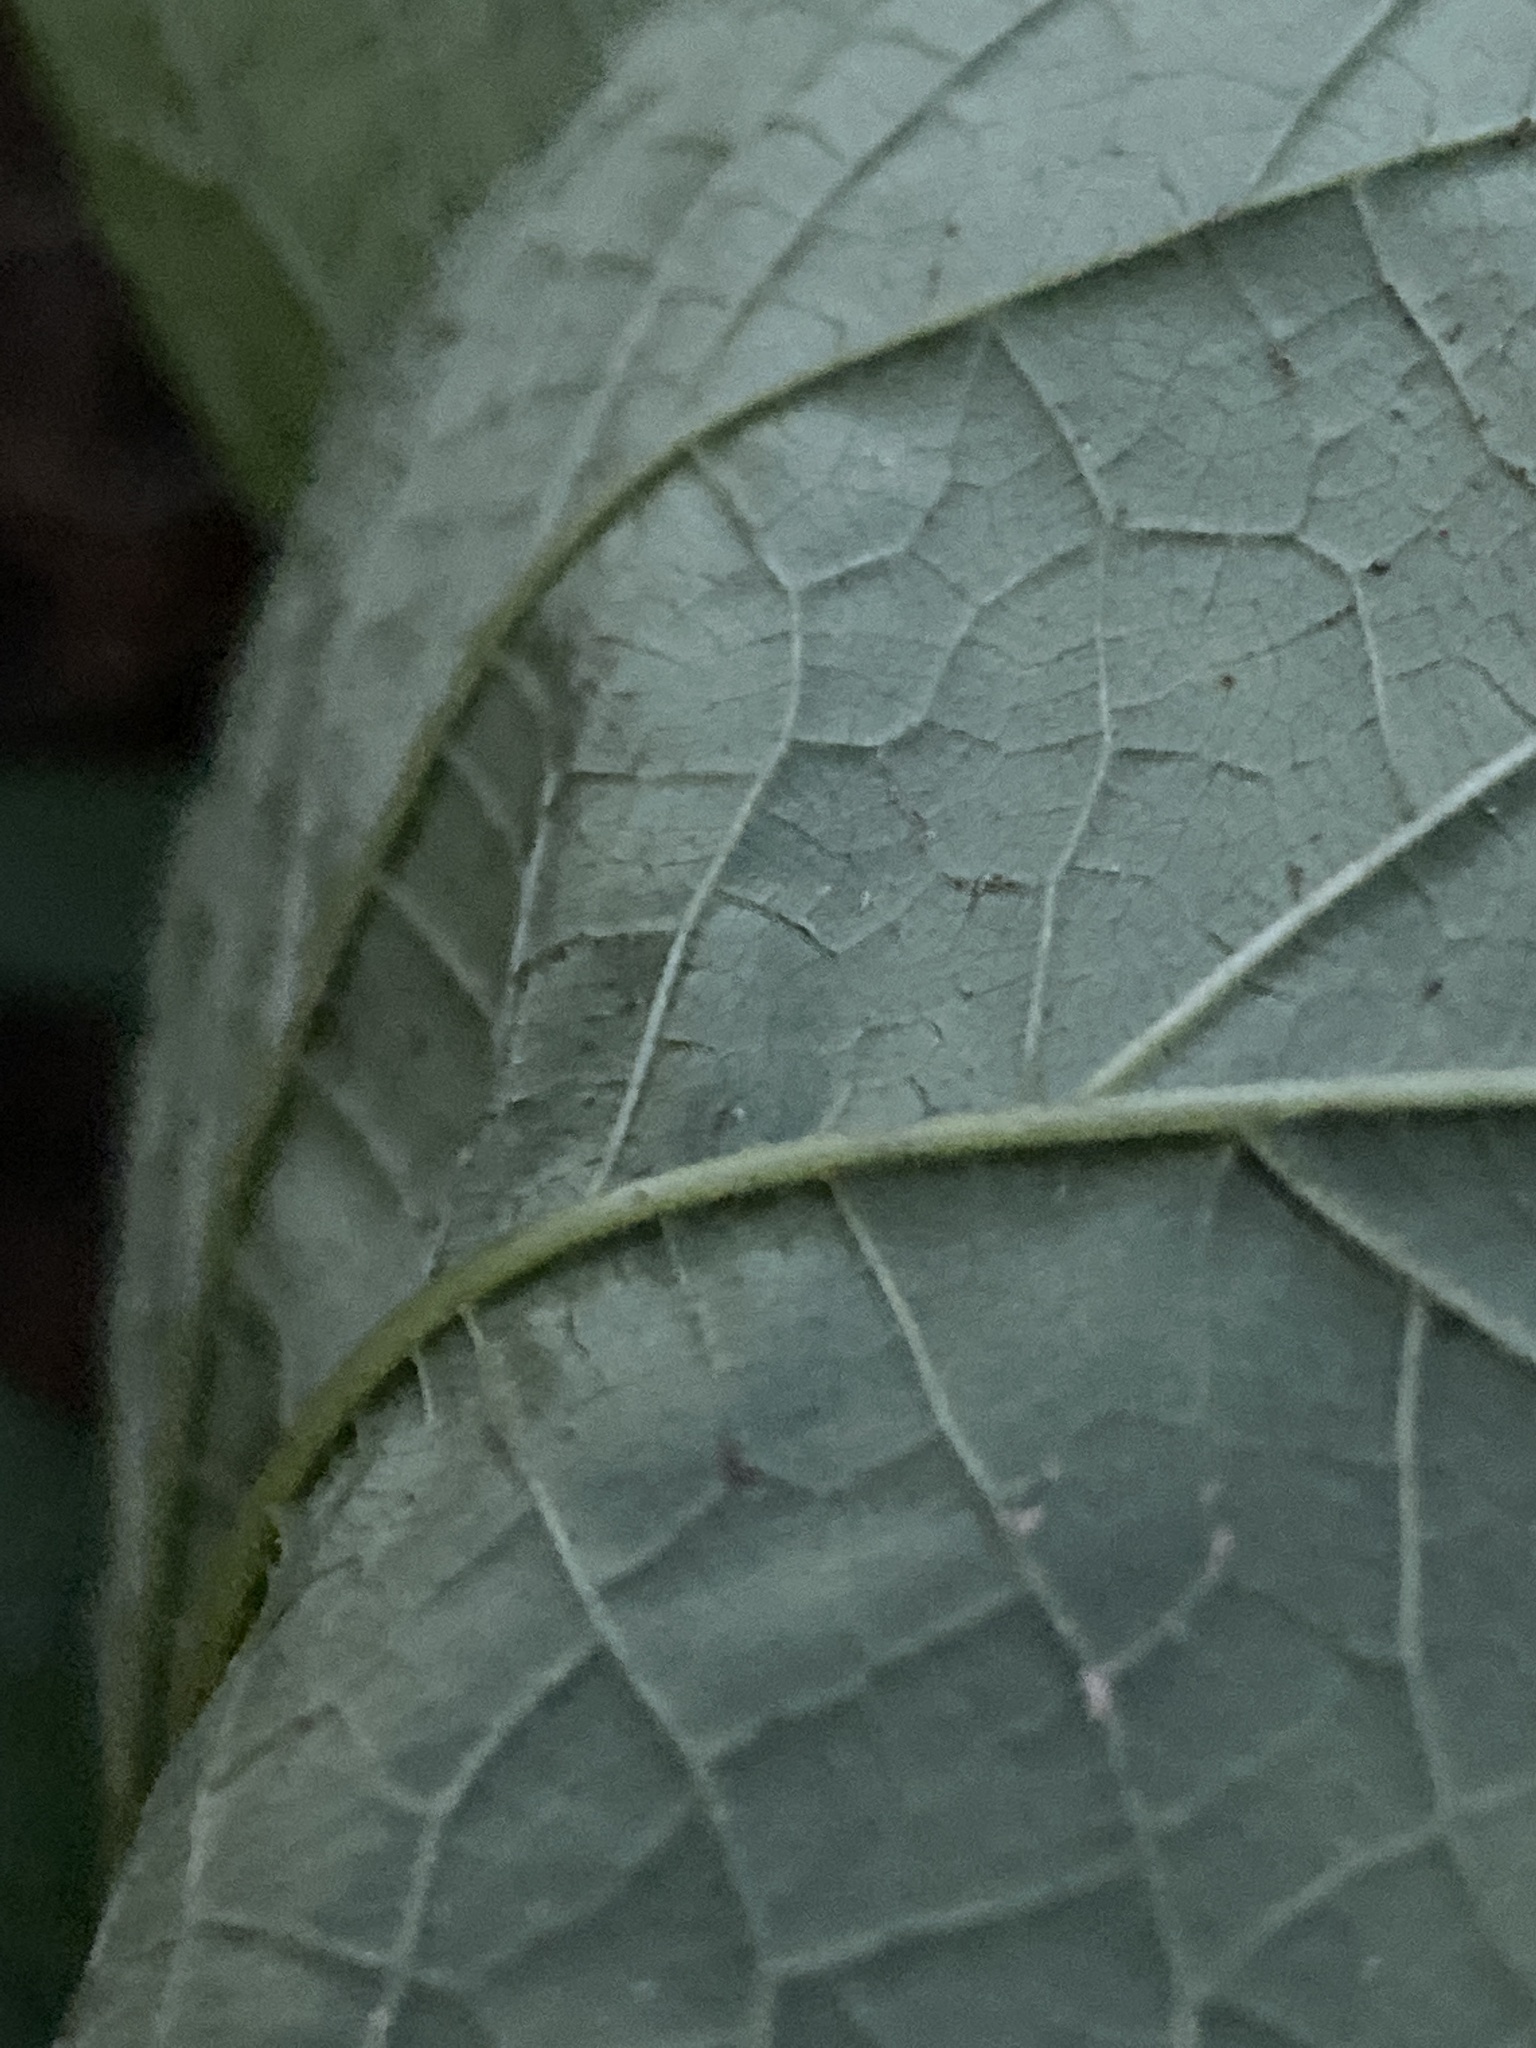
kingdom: Plantae
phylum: Tracheophyta
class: Magnoliopsida
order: Rosales
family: Urticaceae
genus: Boehmeria
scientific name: Boehmeria cylindrica
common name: Bog-hemp
